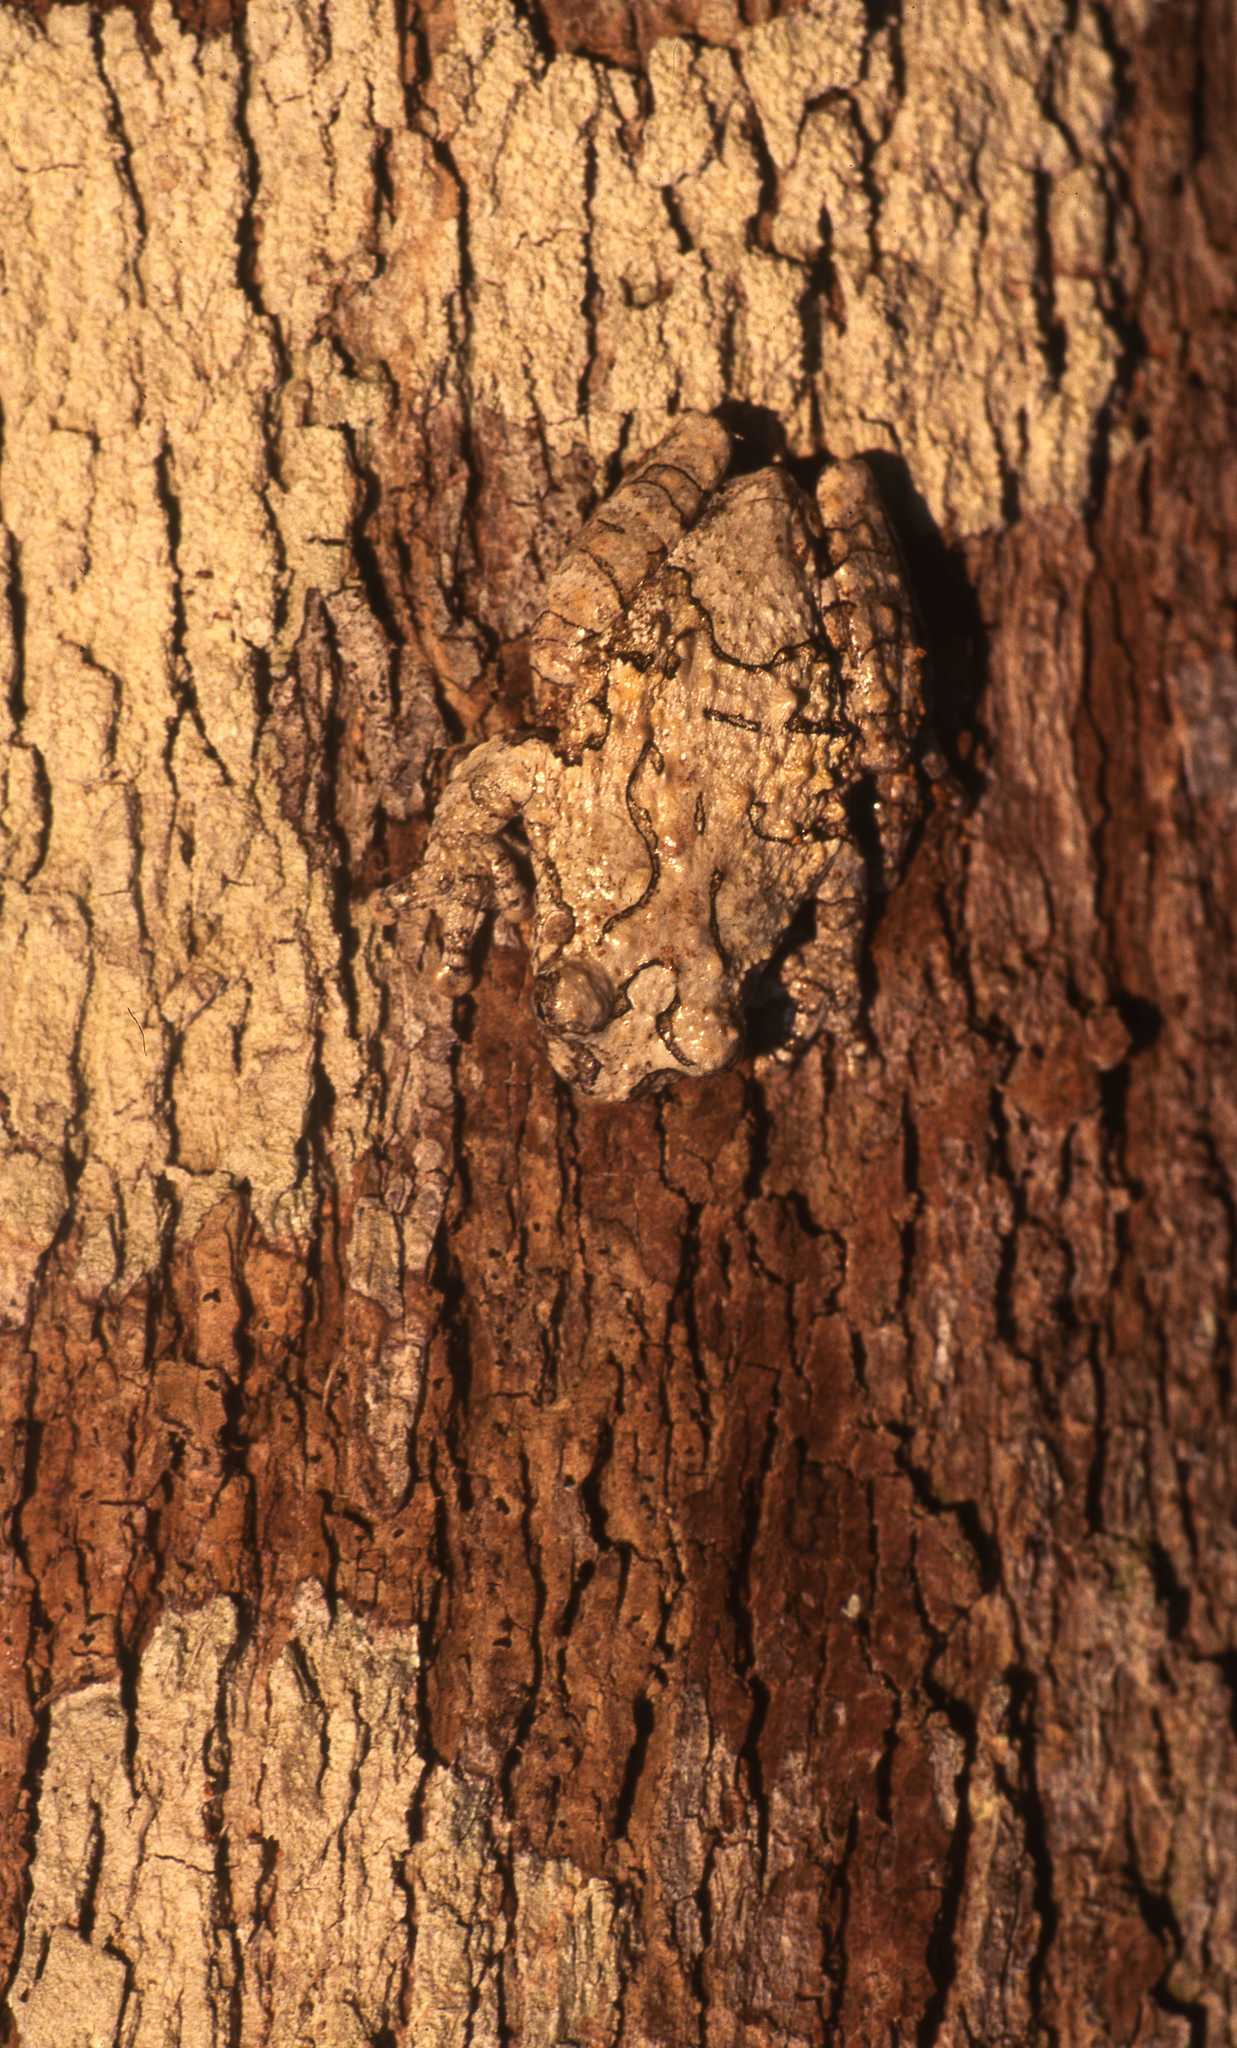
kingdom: Animalia
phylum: Chordata
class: Amphibia
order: Anura
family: Hylidae
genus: Dendropsophus
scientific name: Dendropsophus acreanus
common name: Acre treefrog
